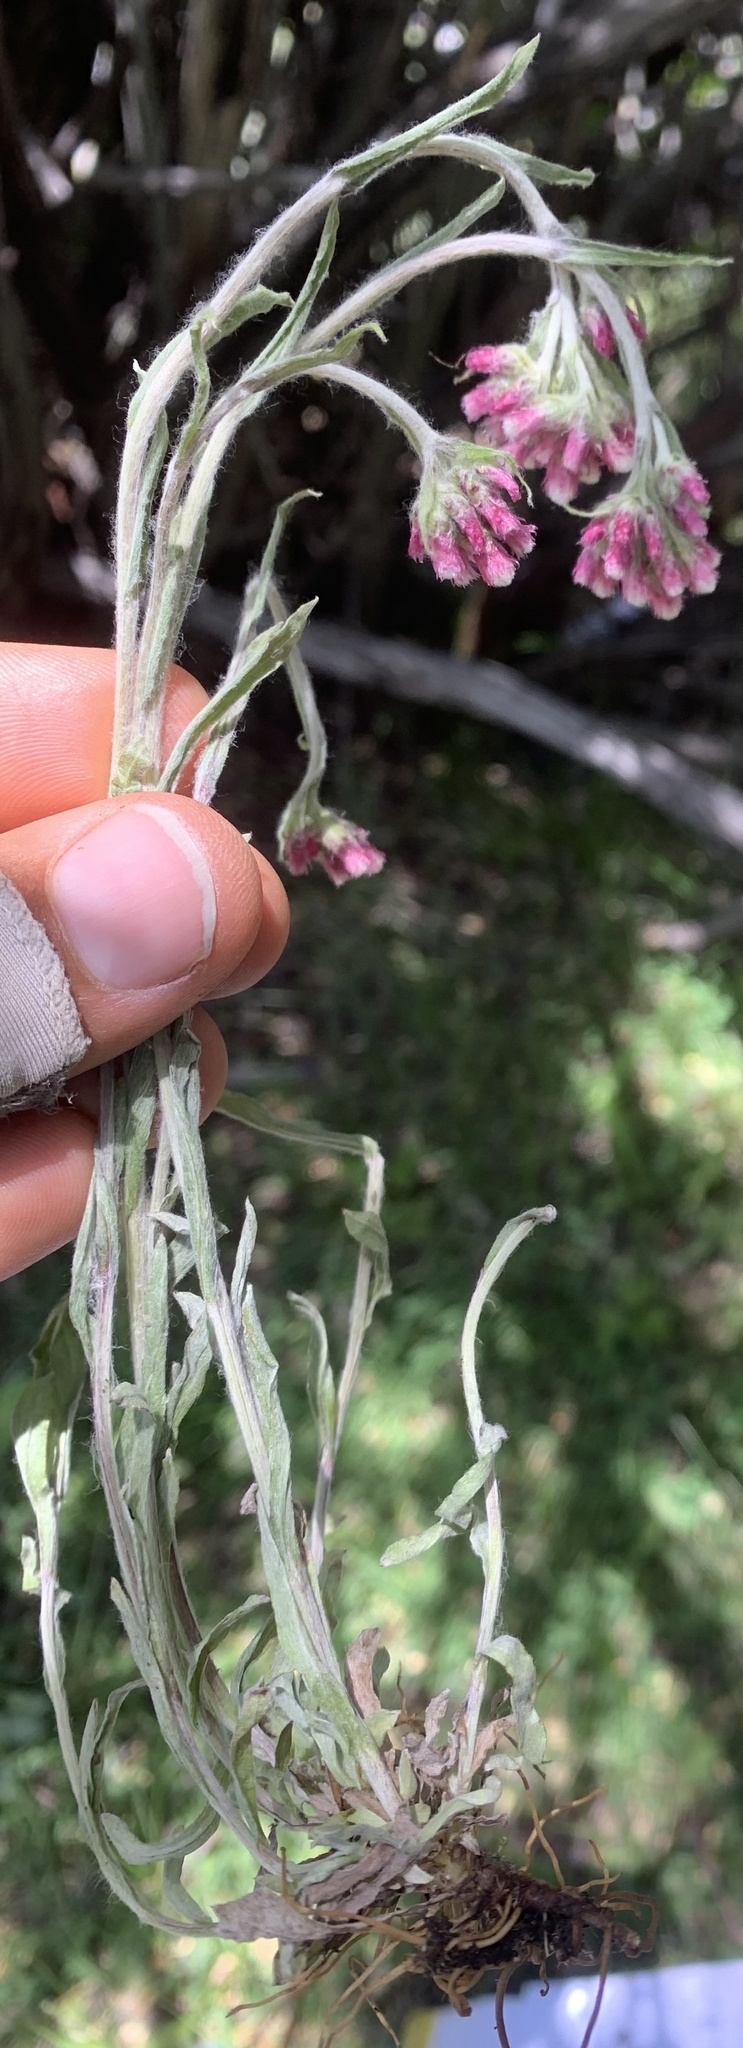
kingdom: Plantae
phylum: Tracheophyta
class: Magnoliopsida
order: Asterales
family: Asteraceae
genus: Antennaria
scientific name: Antennaria rosea
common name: Rosy pussytoes
